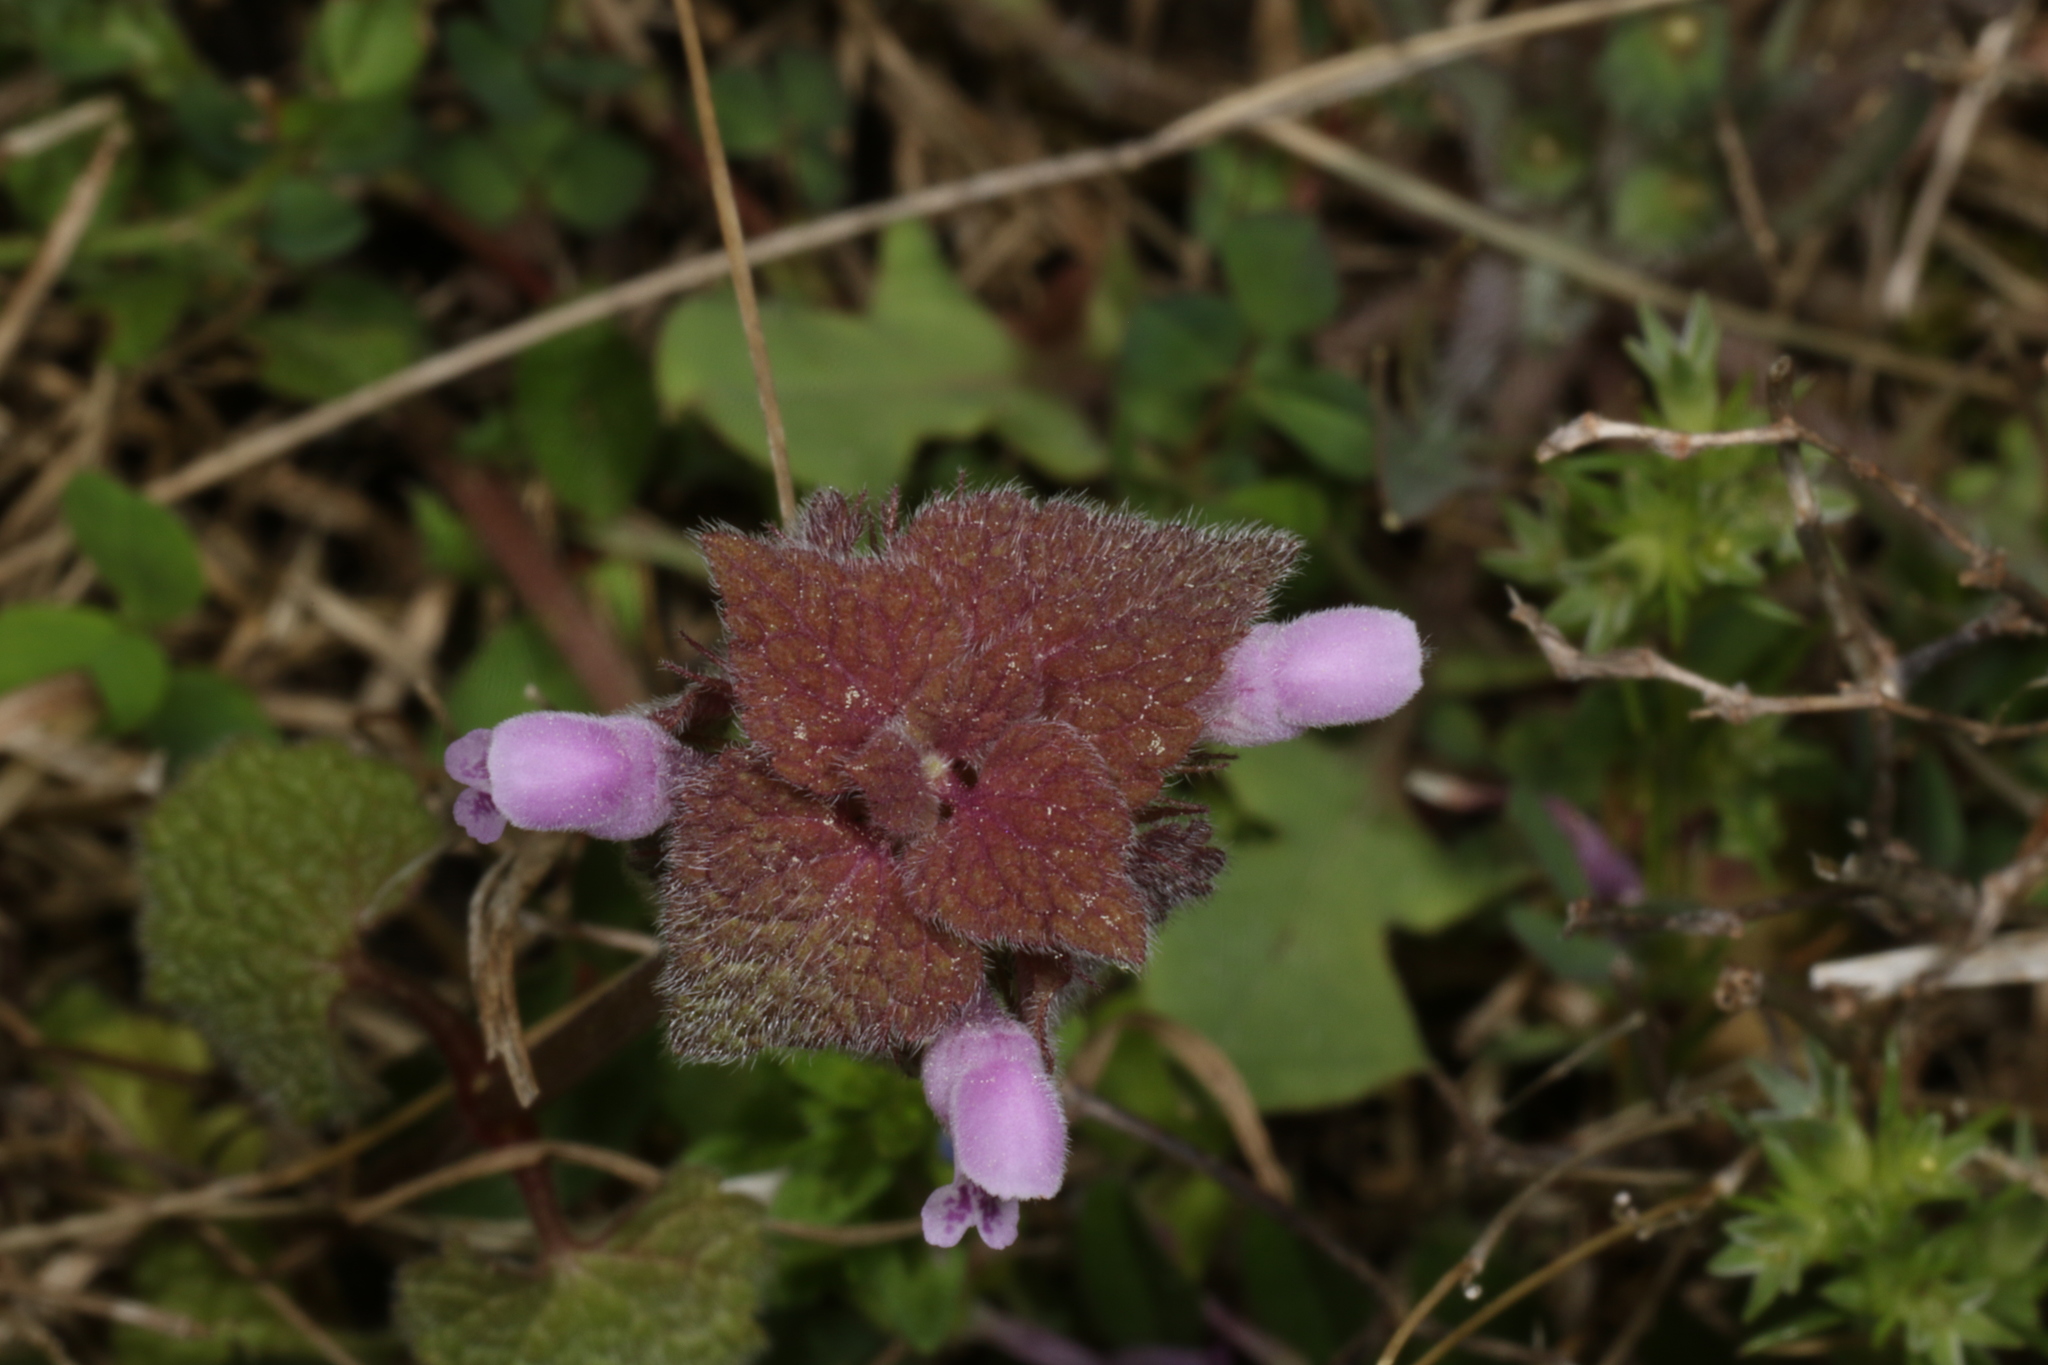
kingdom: Plantae
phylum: Tracheophyta
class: Magnoliopsida
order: Lamiales
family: Lamiaceae
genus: Lamium
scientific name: Lamium purpureum
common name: Red dead-nettle
